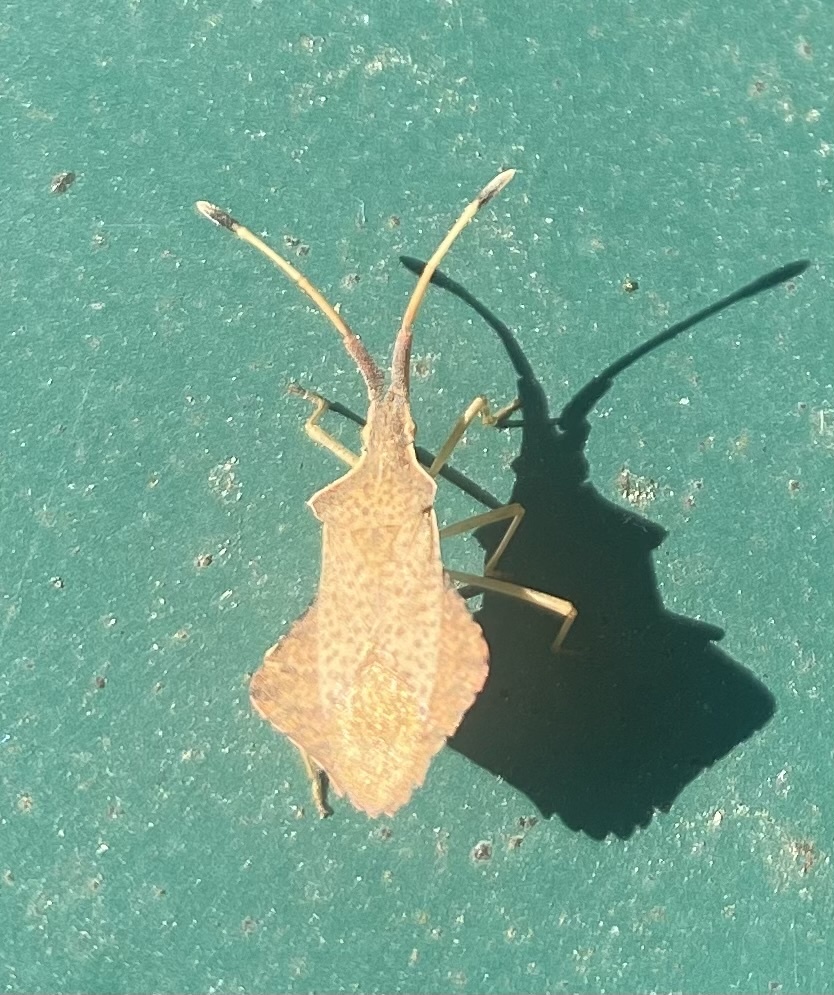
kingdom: Animalia
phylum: Arthropoda
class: Insecta
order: Hemiptera
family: Coreidae
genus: Syromastus
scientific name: Syromastus rhombeus
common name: Rhombic leatherbug
